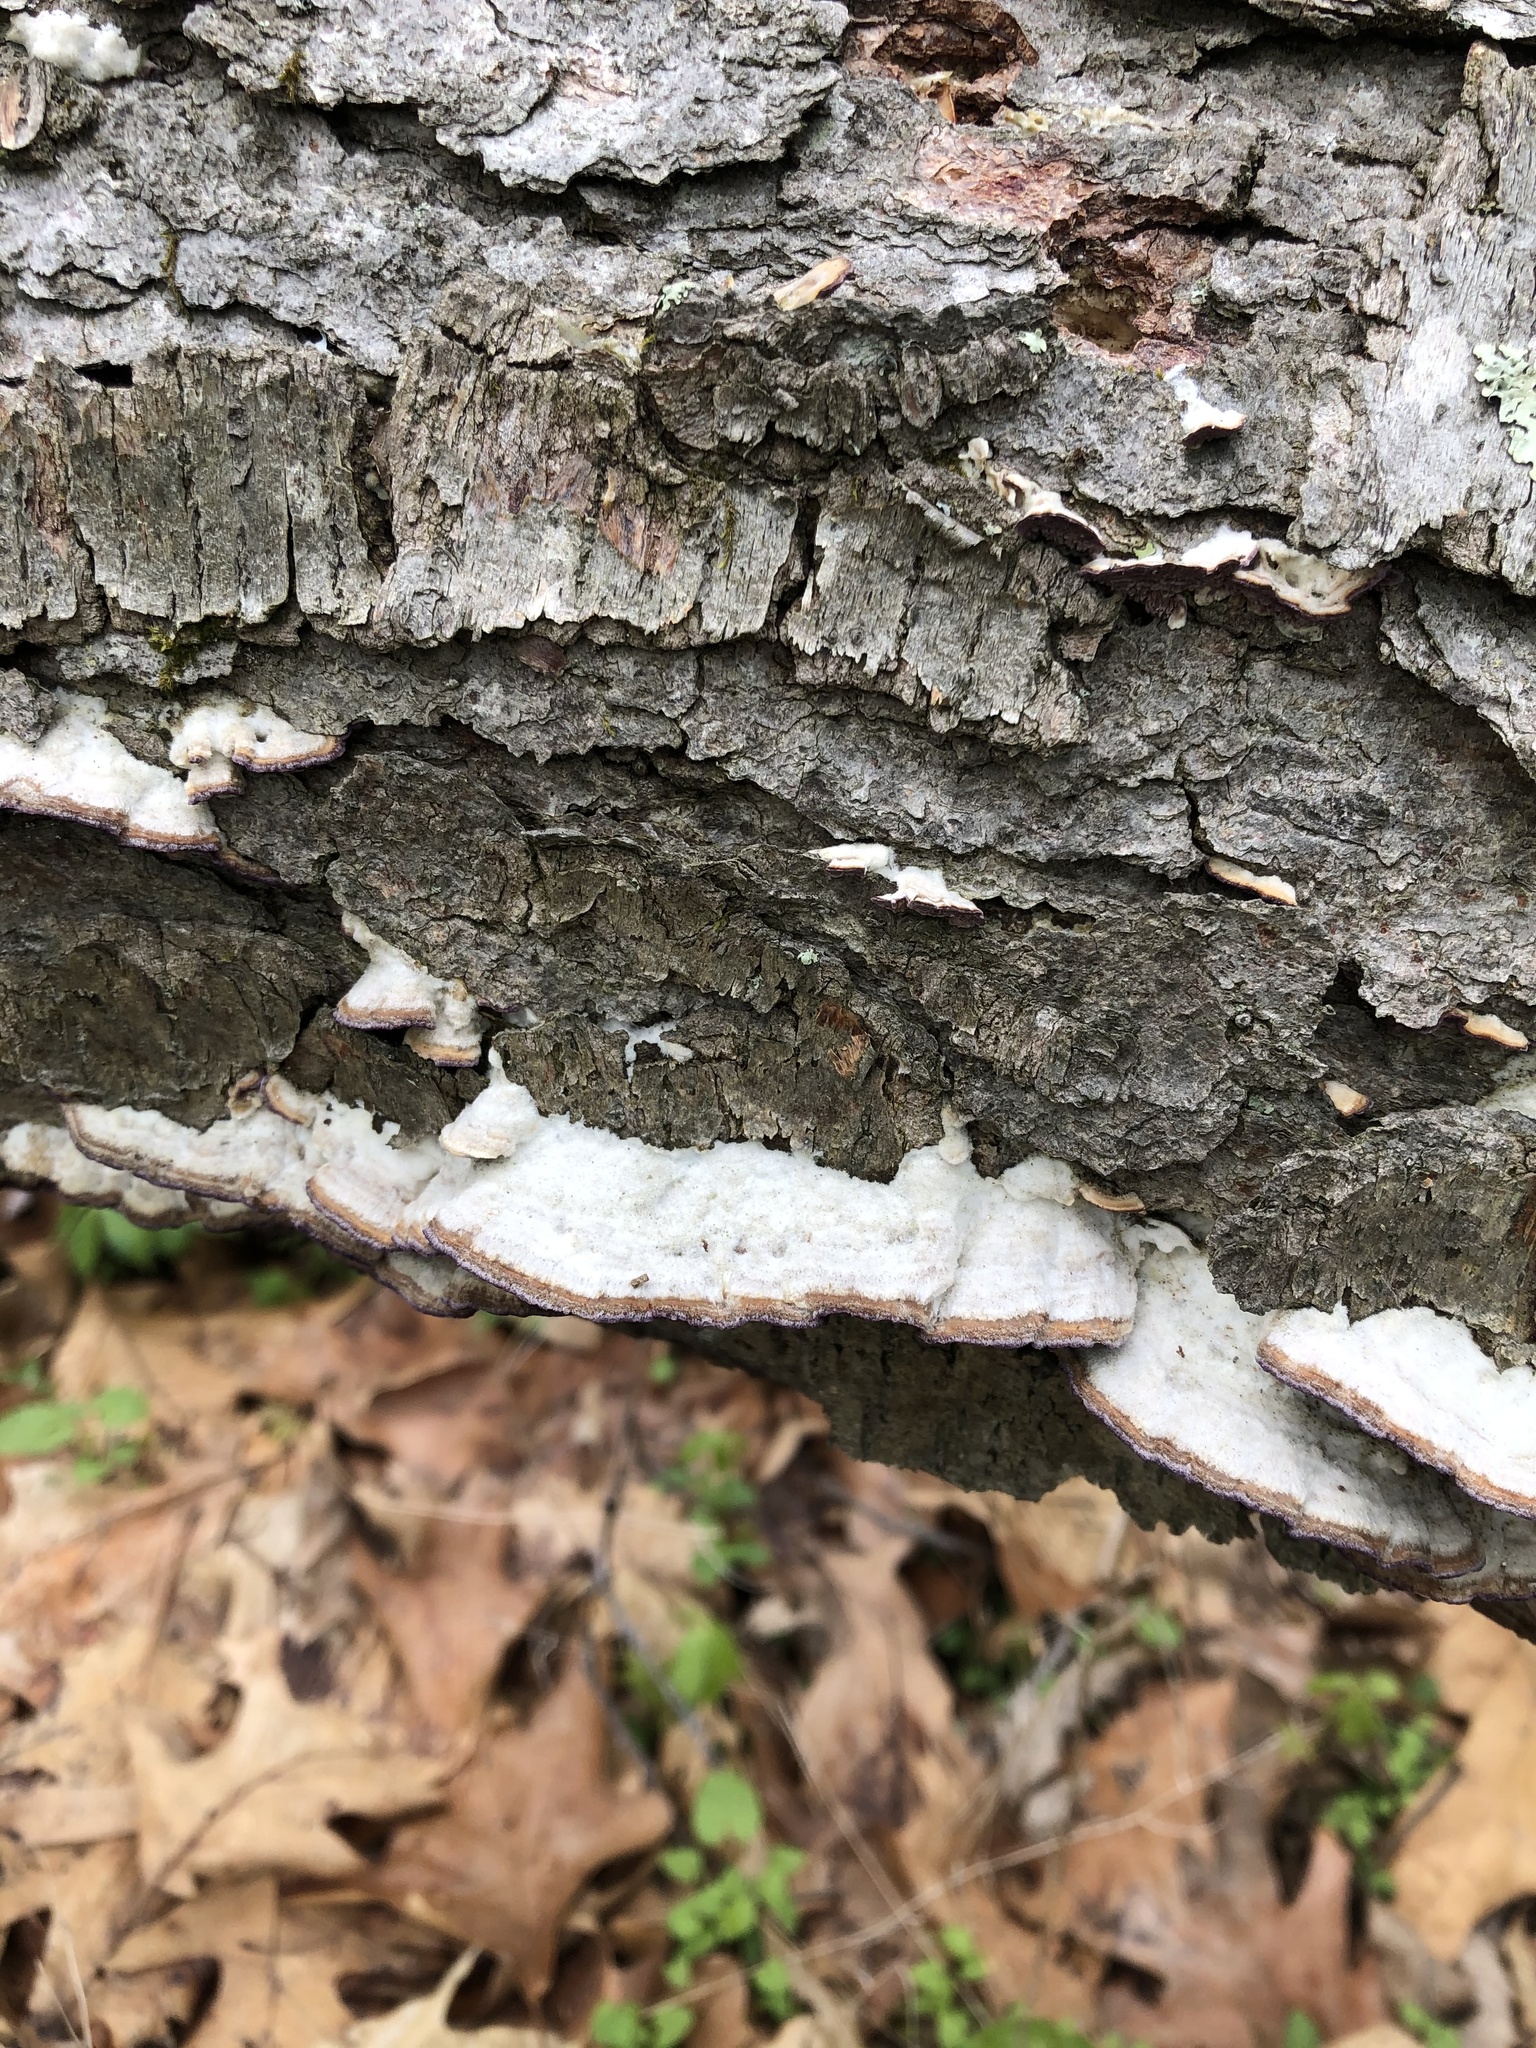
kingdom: Fungi
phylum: Basidiomycota
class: Agaricomycetes
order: Hymenochaetales
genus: Trichaptum
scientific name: Trichaptum abietinum
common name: Purplepore bracket
